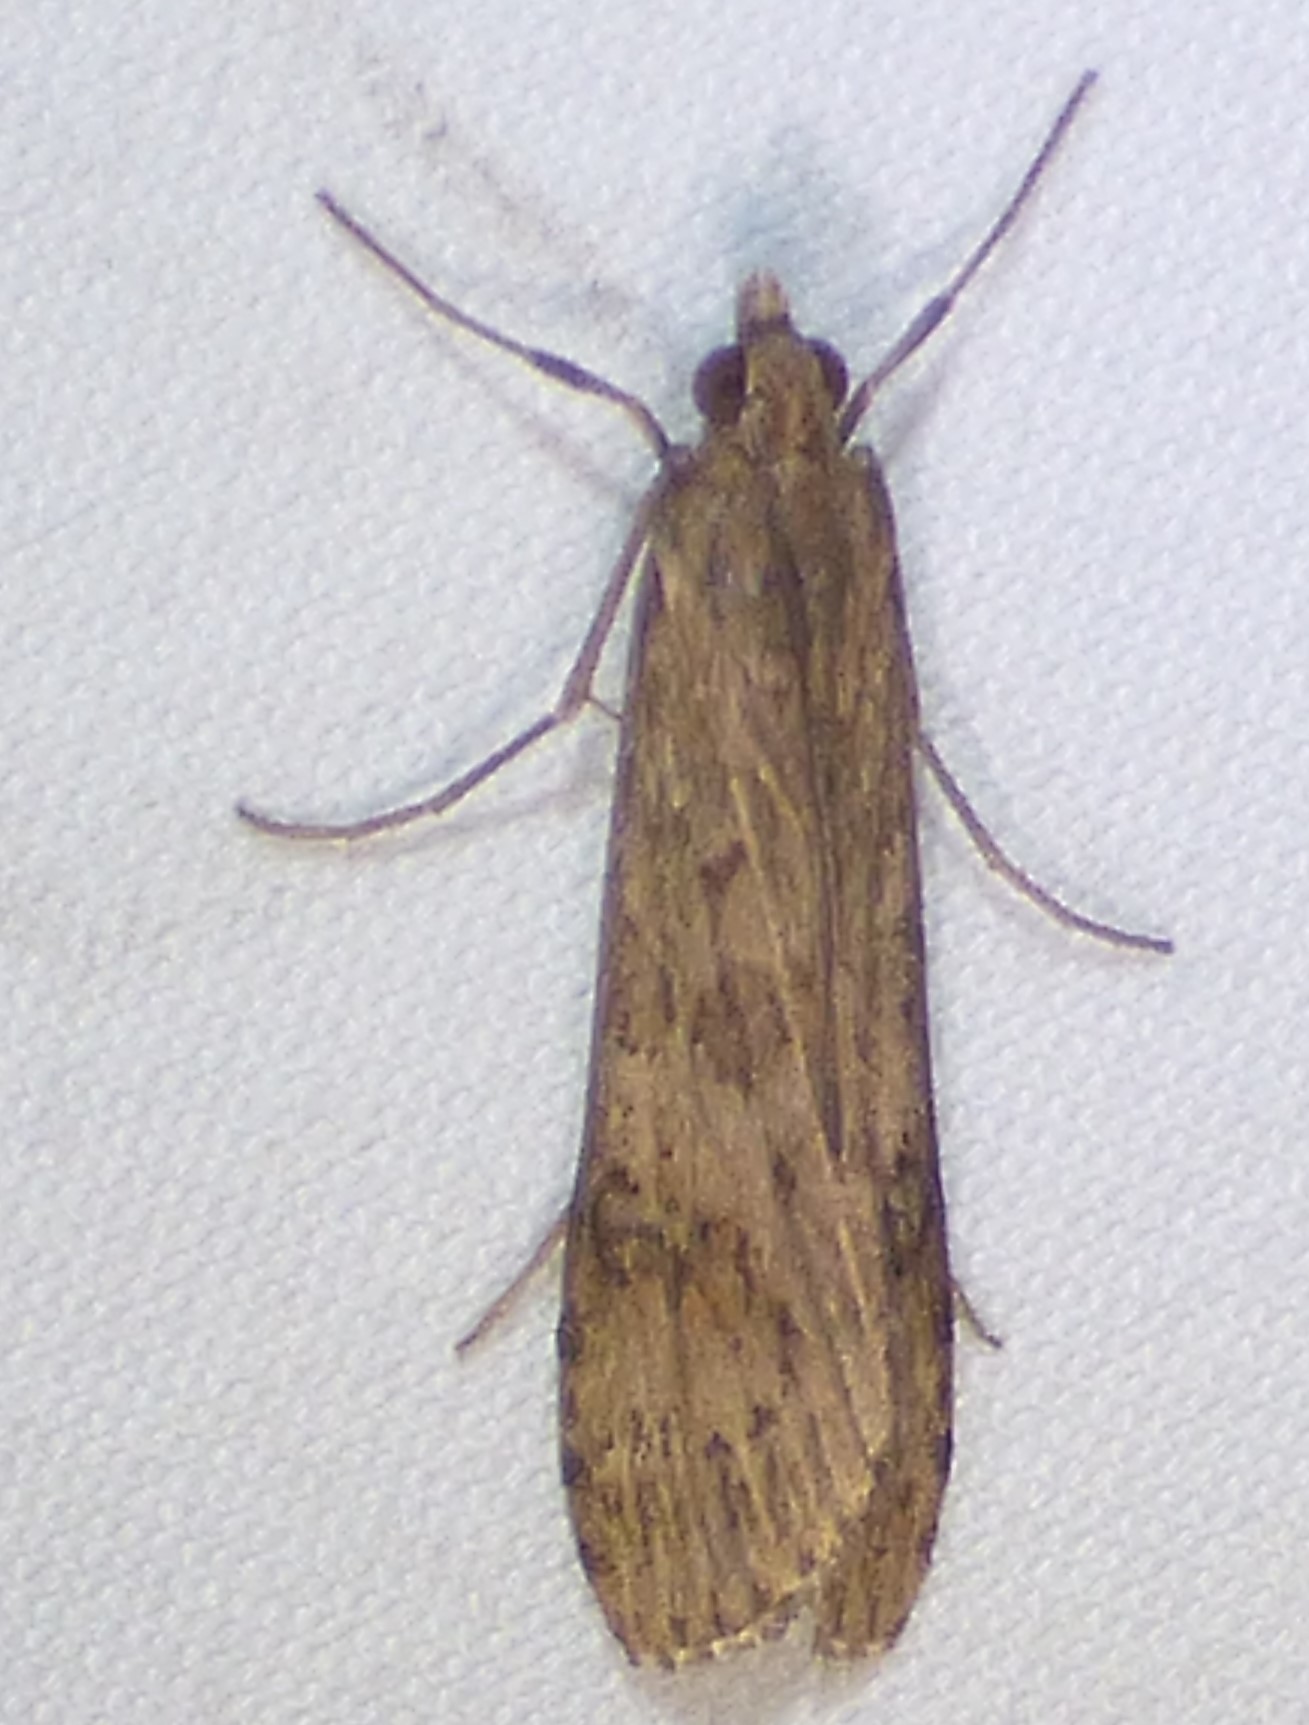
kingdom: Animalia
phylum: Arthropoda
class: Insecta
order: Lepidoptera
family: Crambidae
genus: Nomophila
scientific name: Nomophila nearctica
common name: American rush veneer
